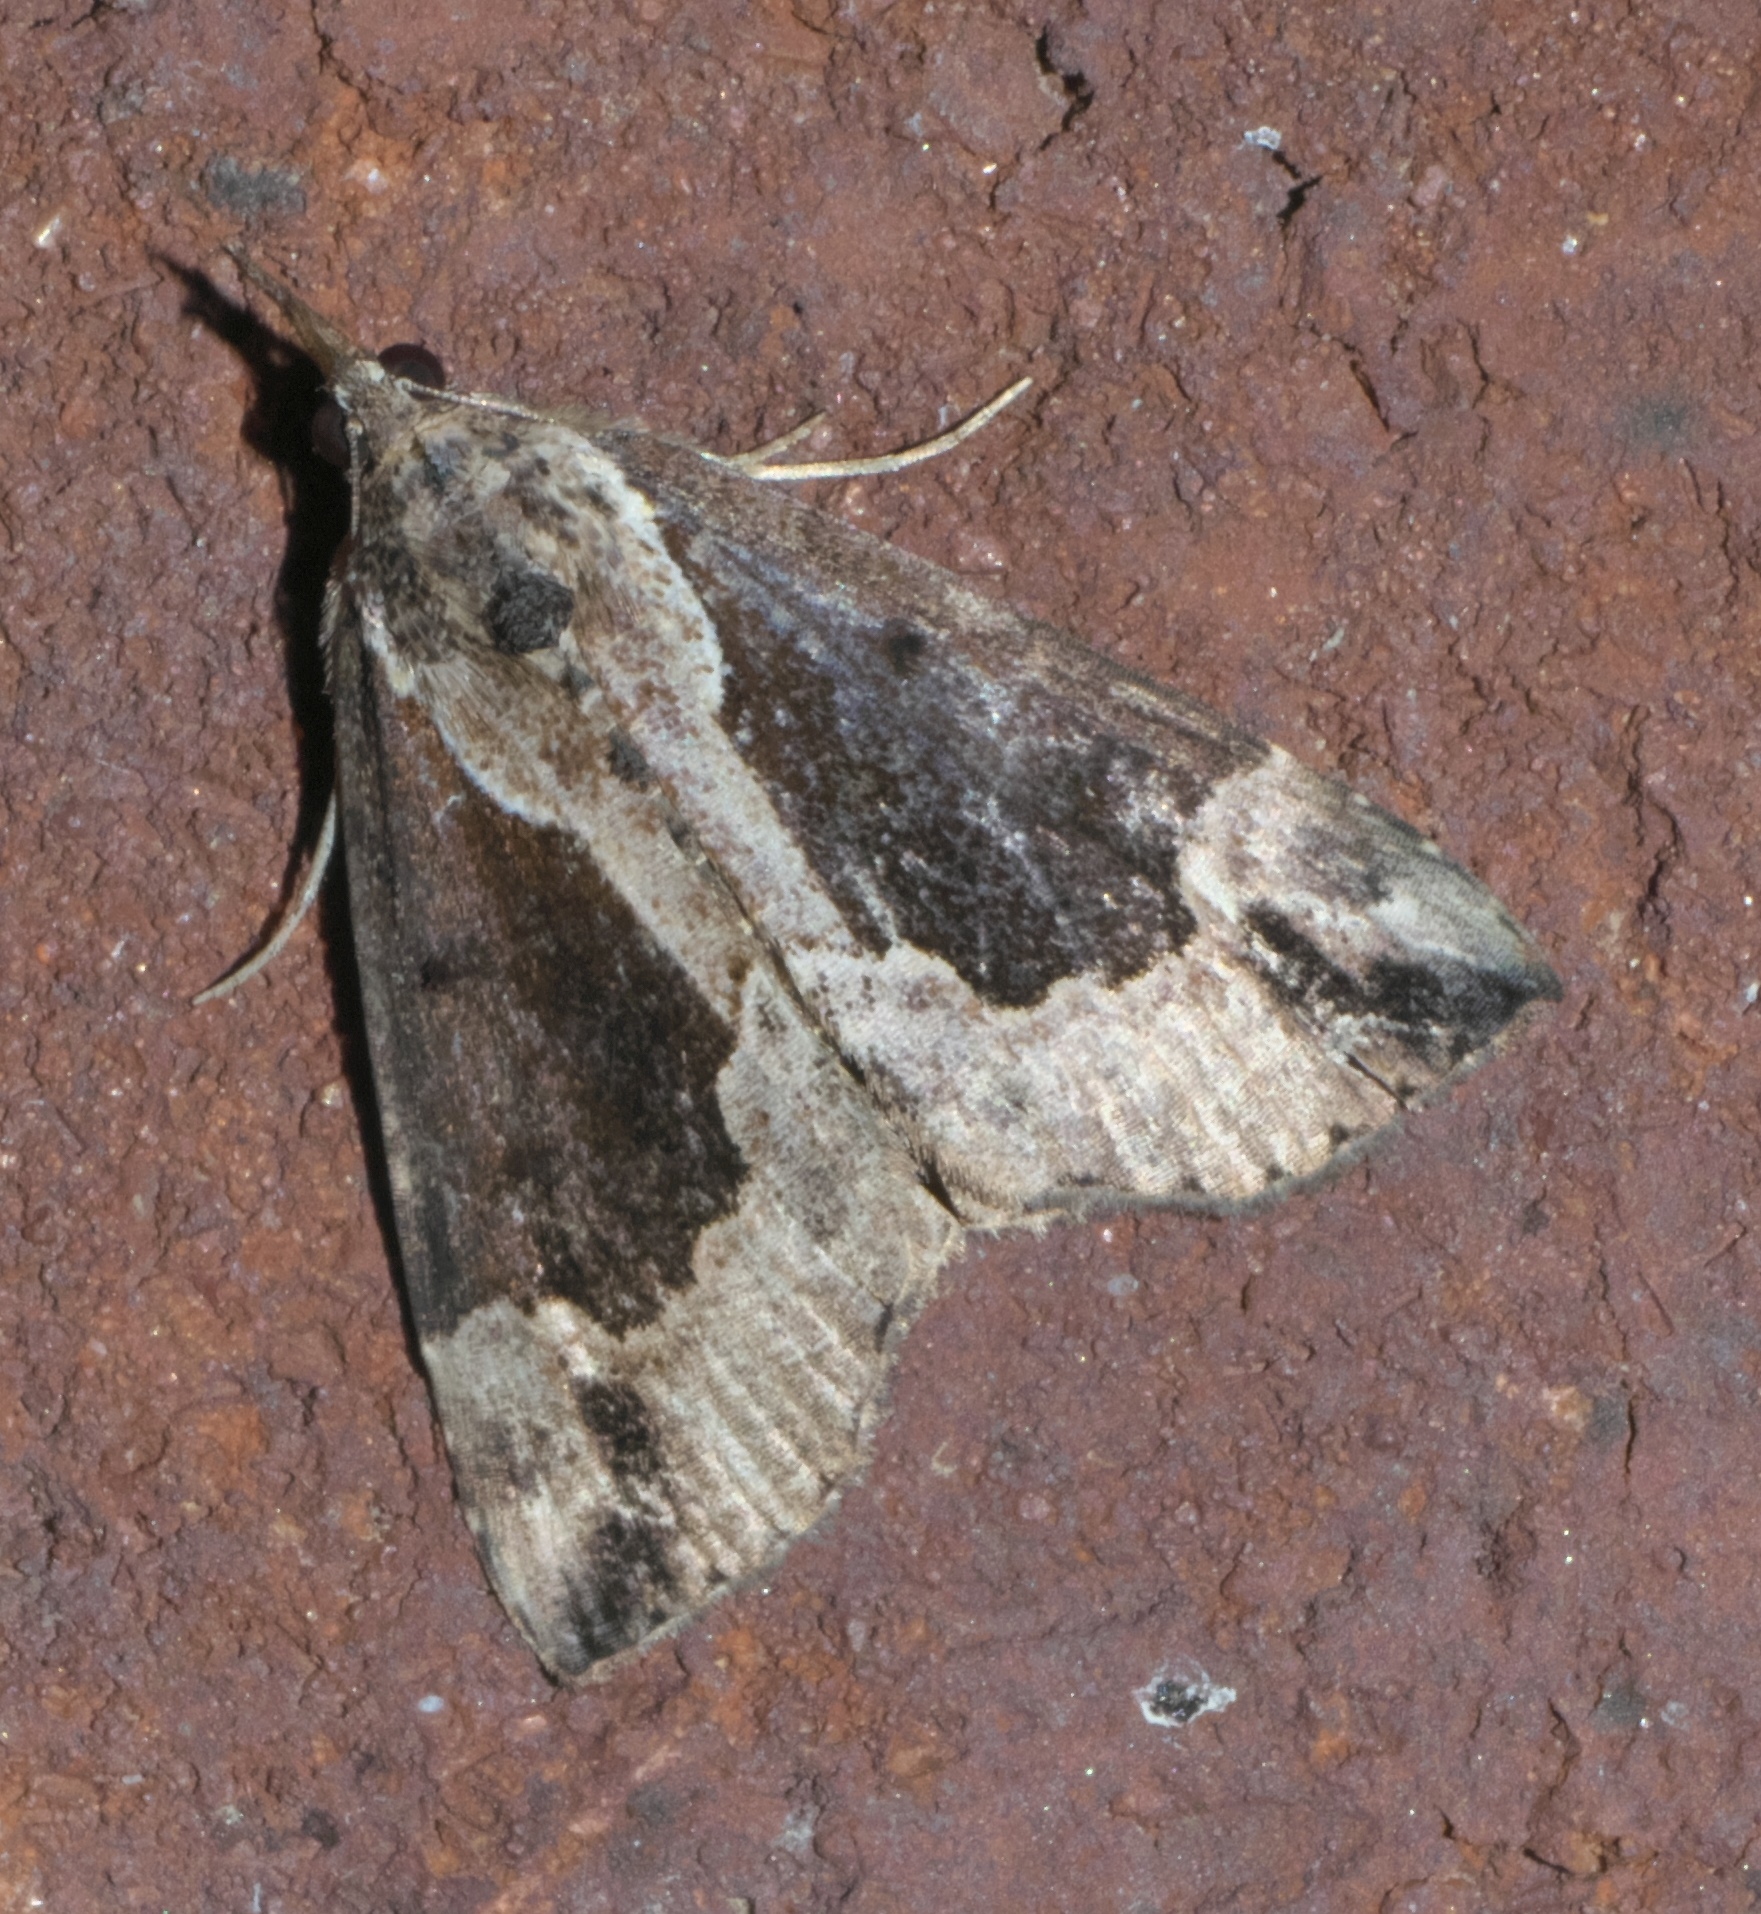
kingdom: Animalia
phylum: Arthropoda
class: Insecta
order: Lepidoptera
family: Erebidae
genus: Hypena
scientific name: Hypena baltimoralis
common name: Baltimore snout
